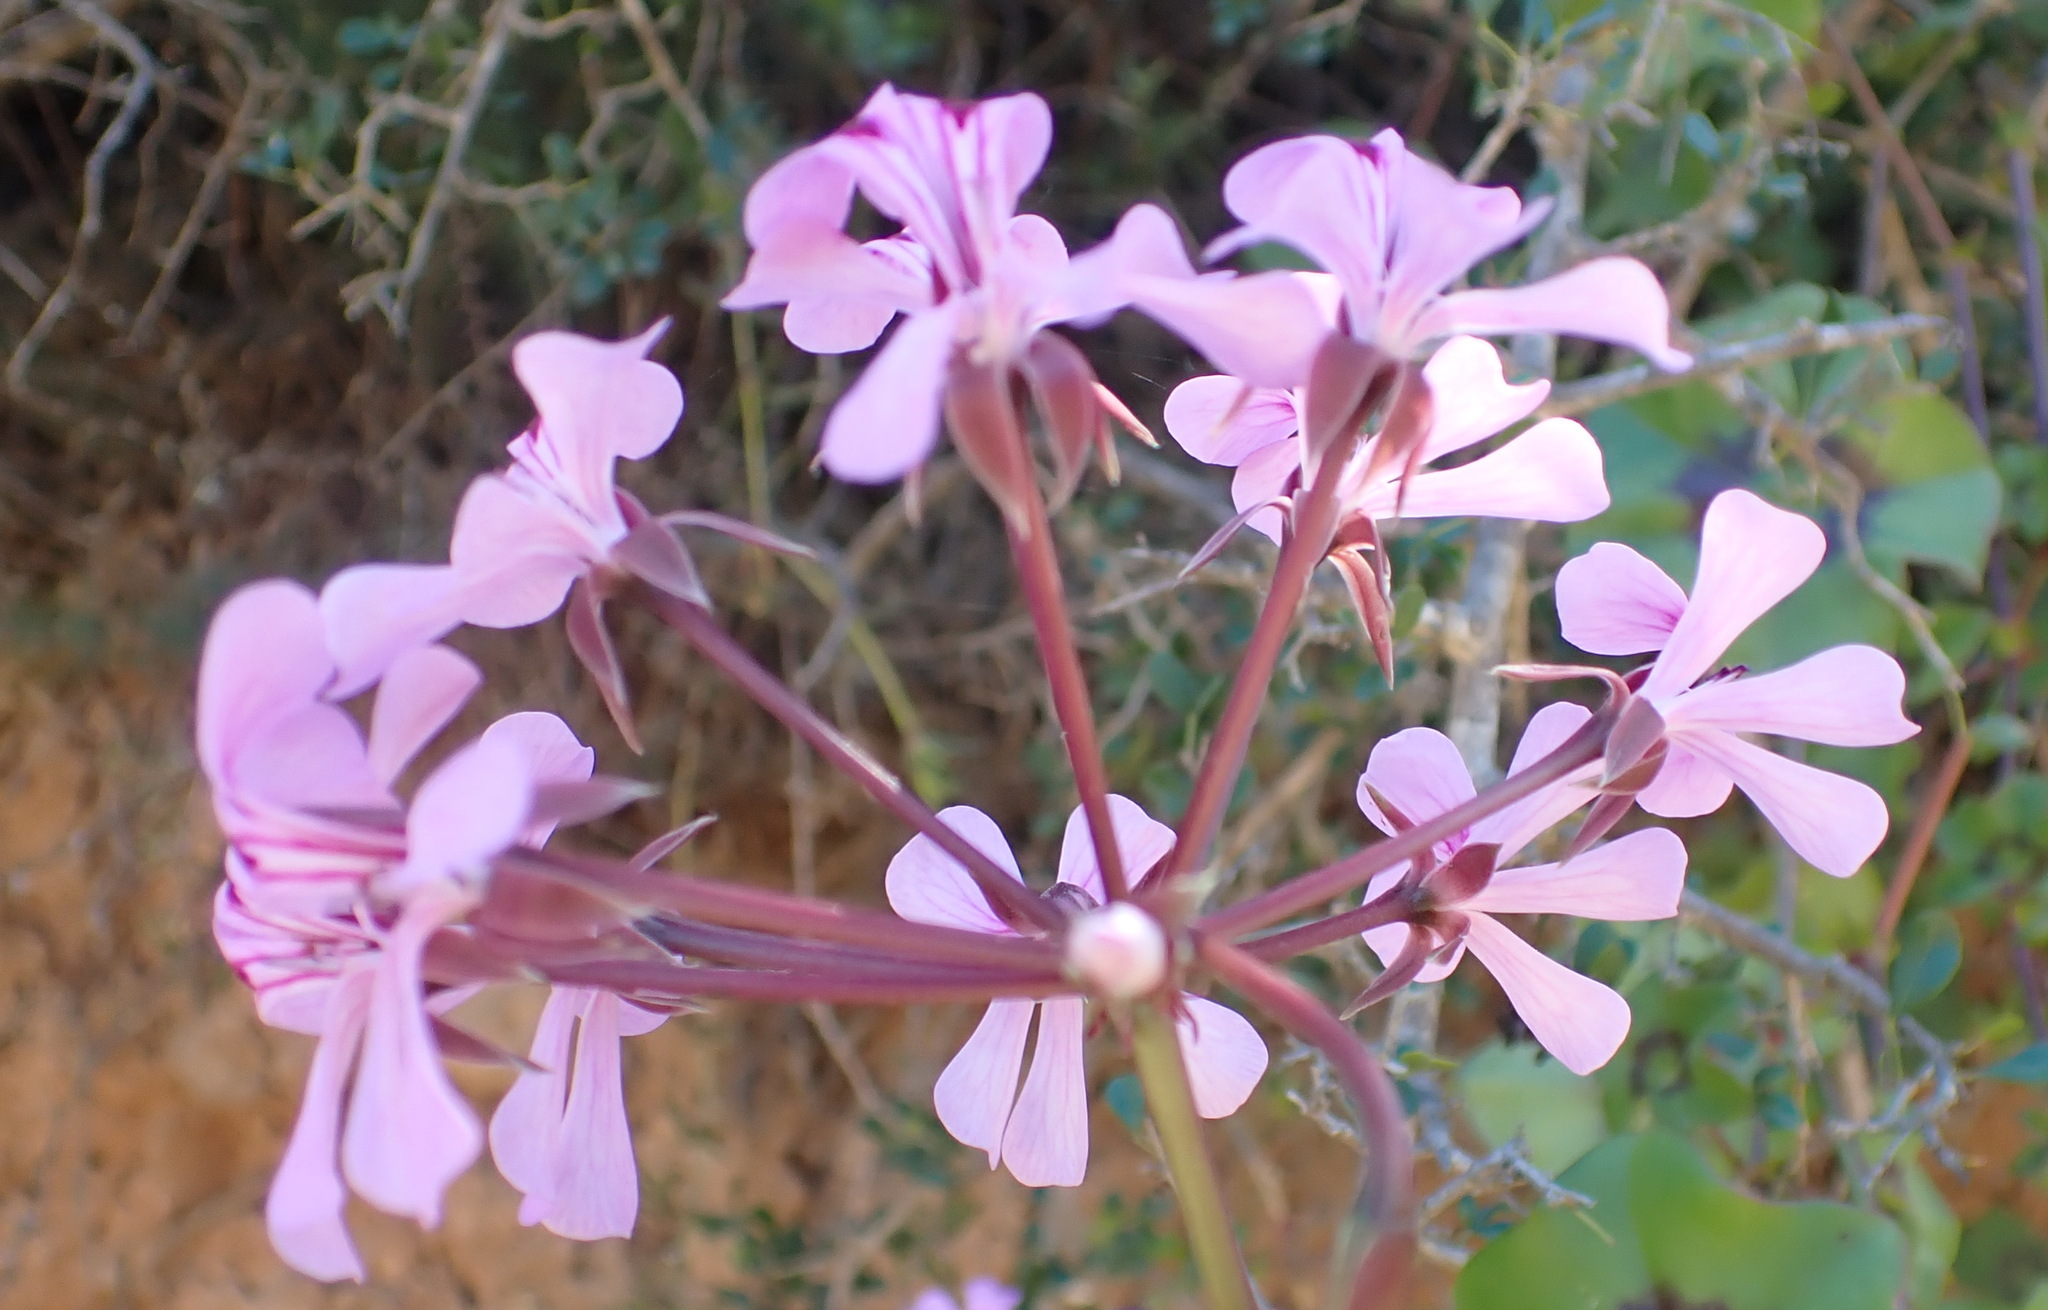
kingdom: Plantae
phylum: Tracheophyta
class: Magnoliopsida
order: Geraniales
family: Geraniaceae
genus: Pelargonium
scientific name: Pelargonium peltatum
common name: Ivyleaf geranium
